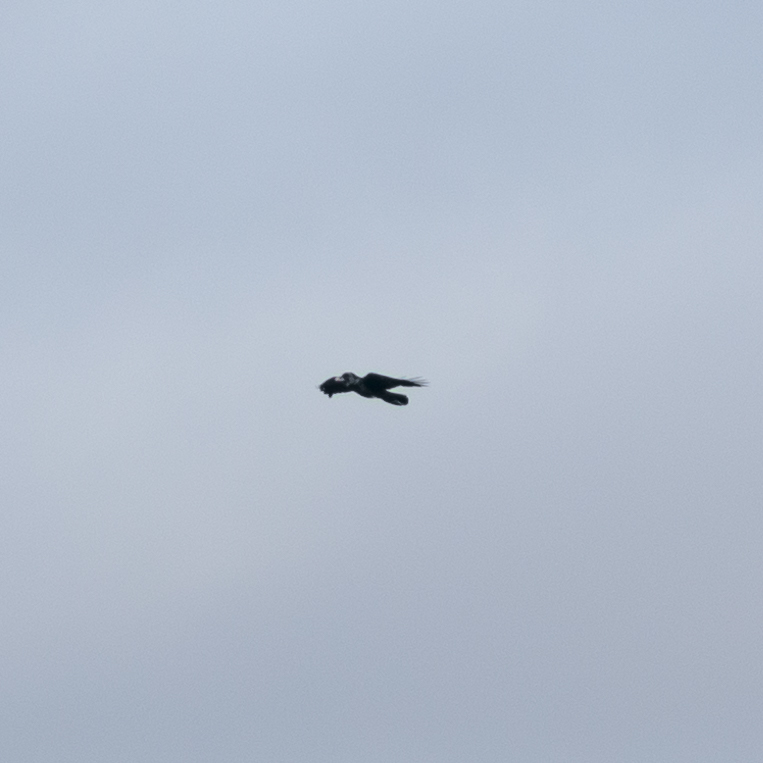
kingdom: Animalia
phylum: Chordata
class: Aves
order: Passeriformes
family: Corvidae
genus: Corvus
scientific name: Corvus corax
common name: Common raven
